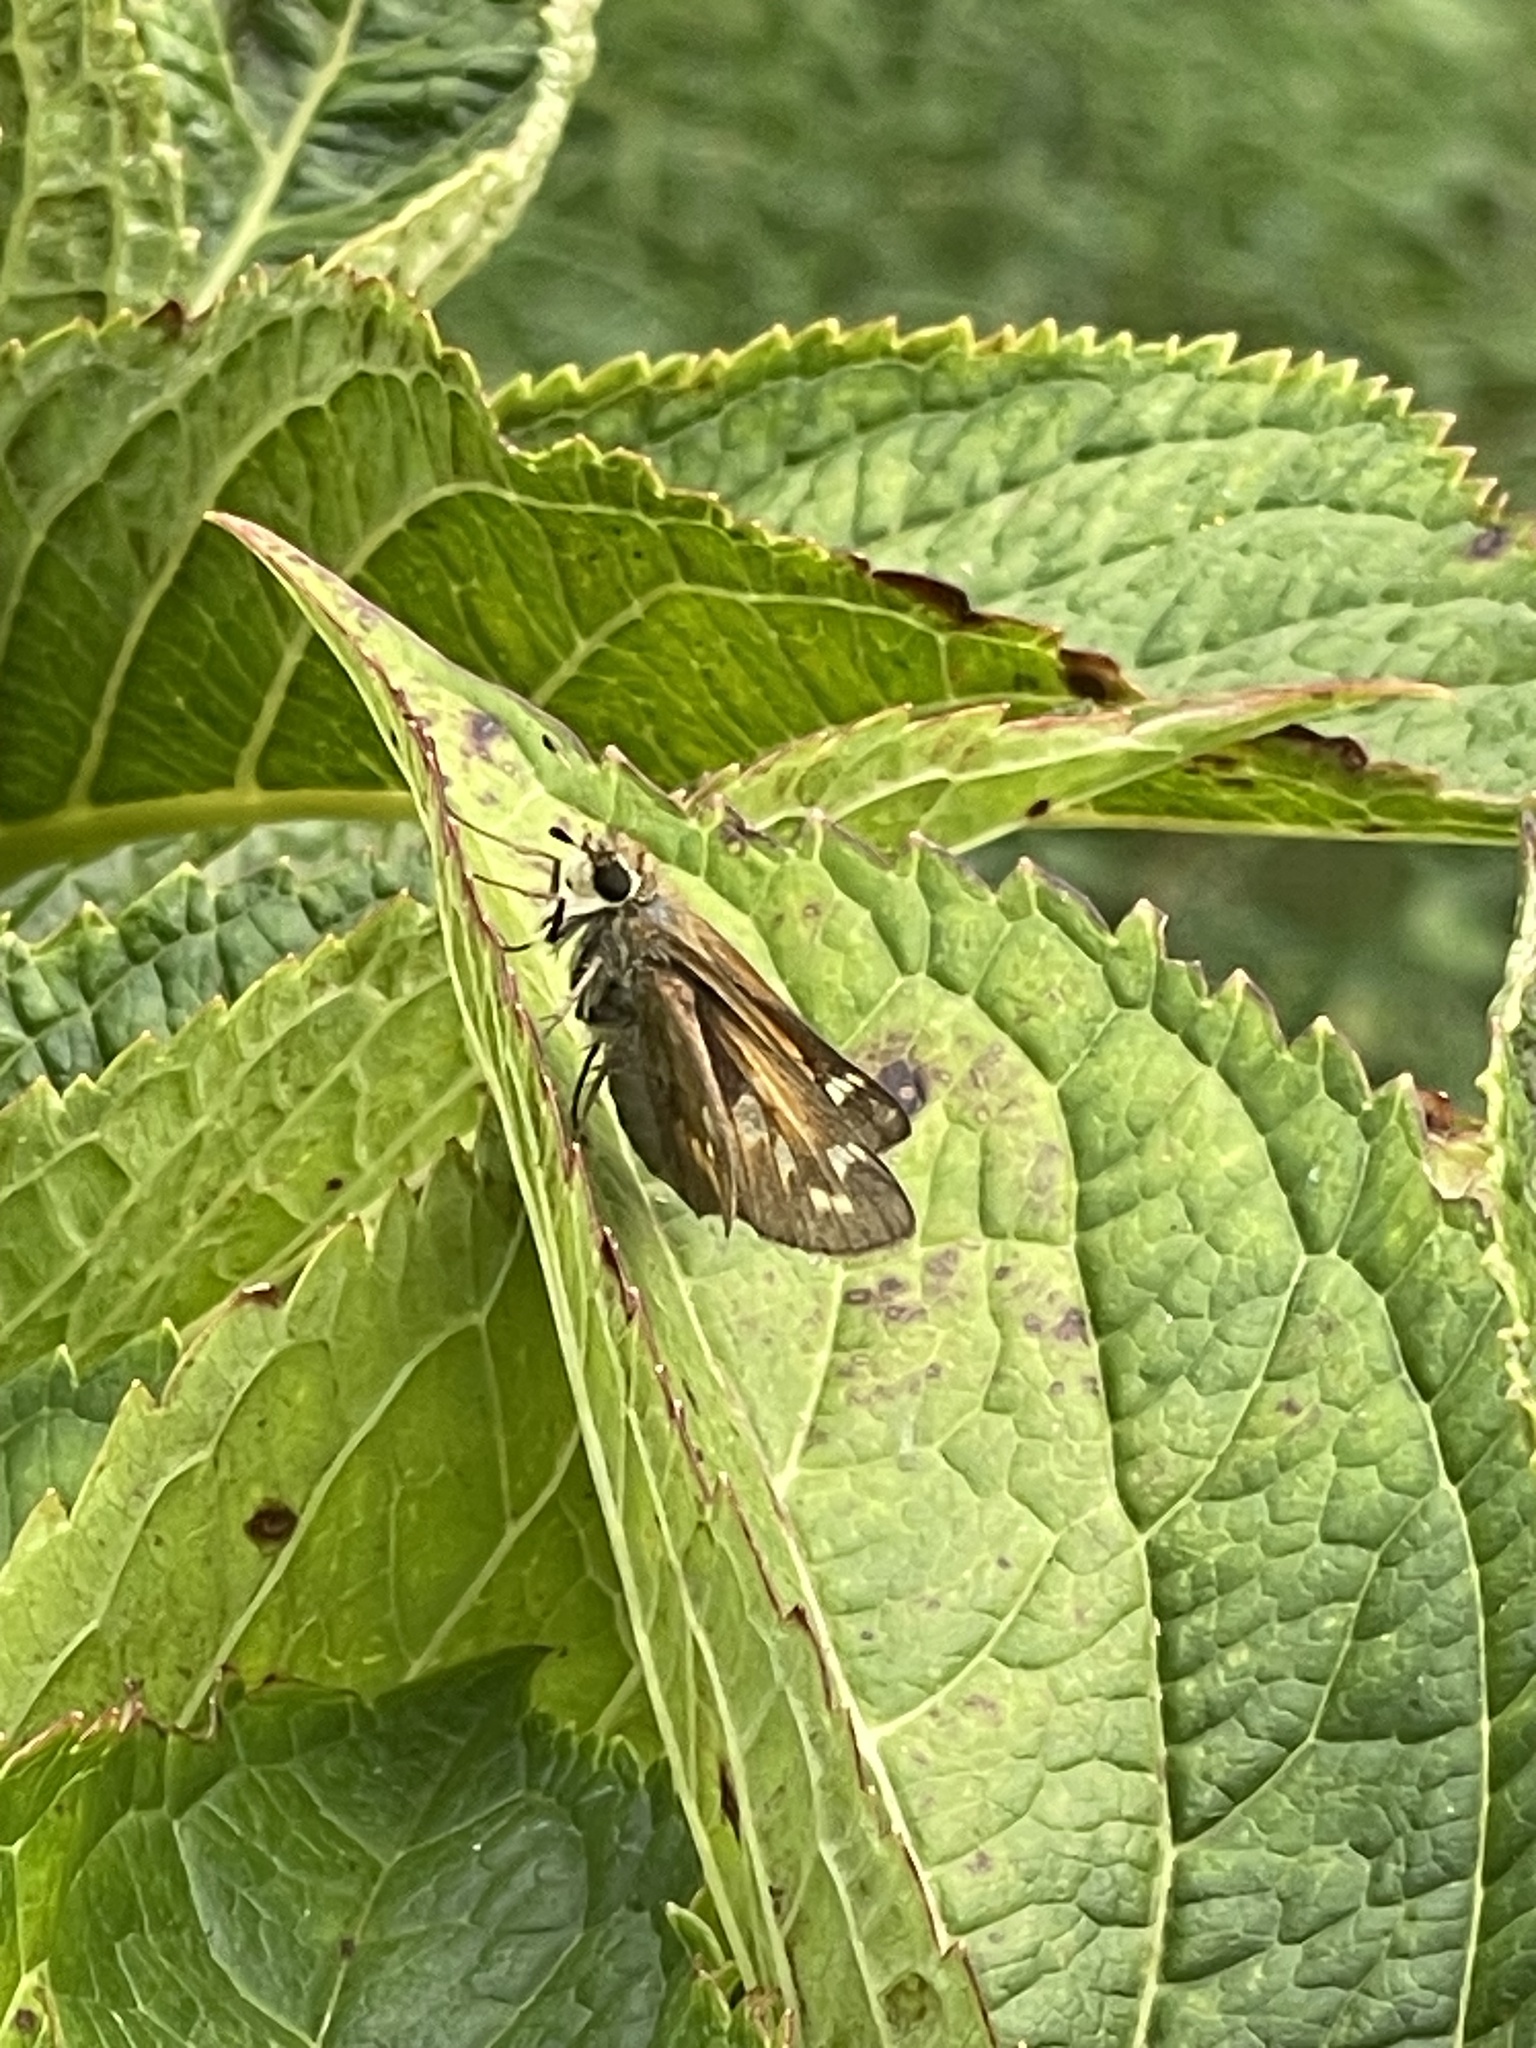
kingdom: Animalia
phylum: Arthropoda
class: Insecta
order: Lepidoptera
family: Hesperiidae
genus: Atalopedes
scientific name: Atalopedes
